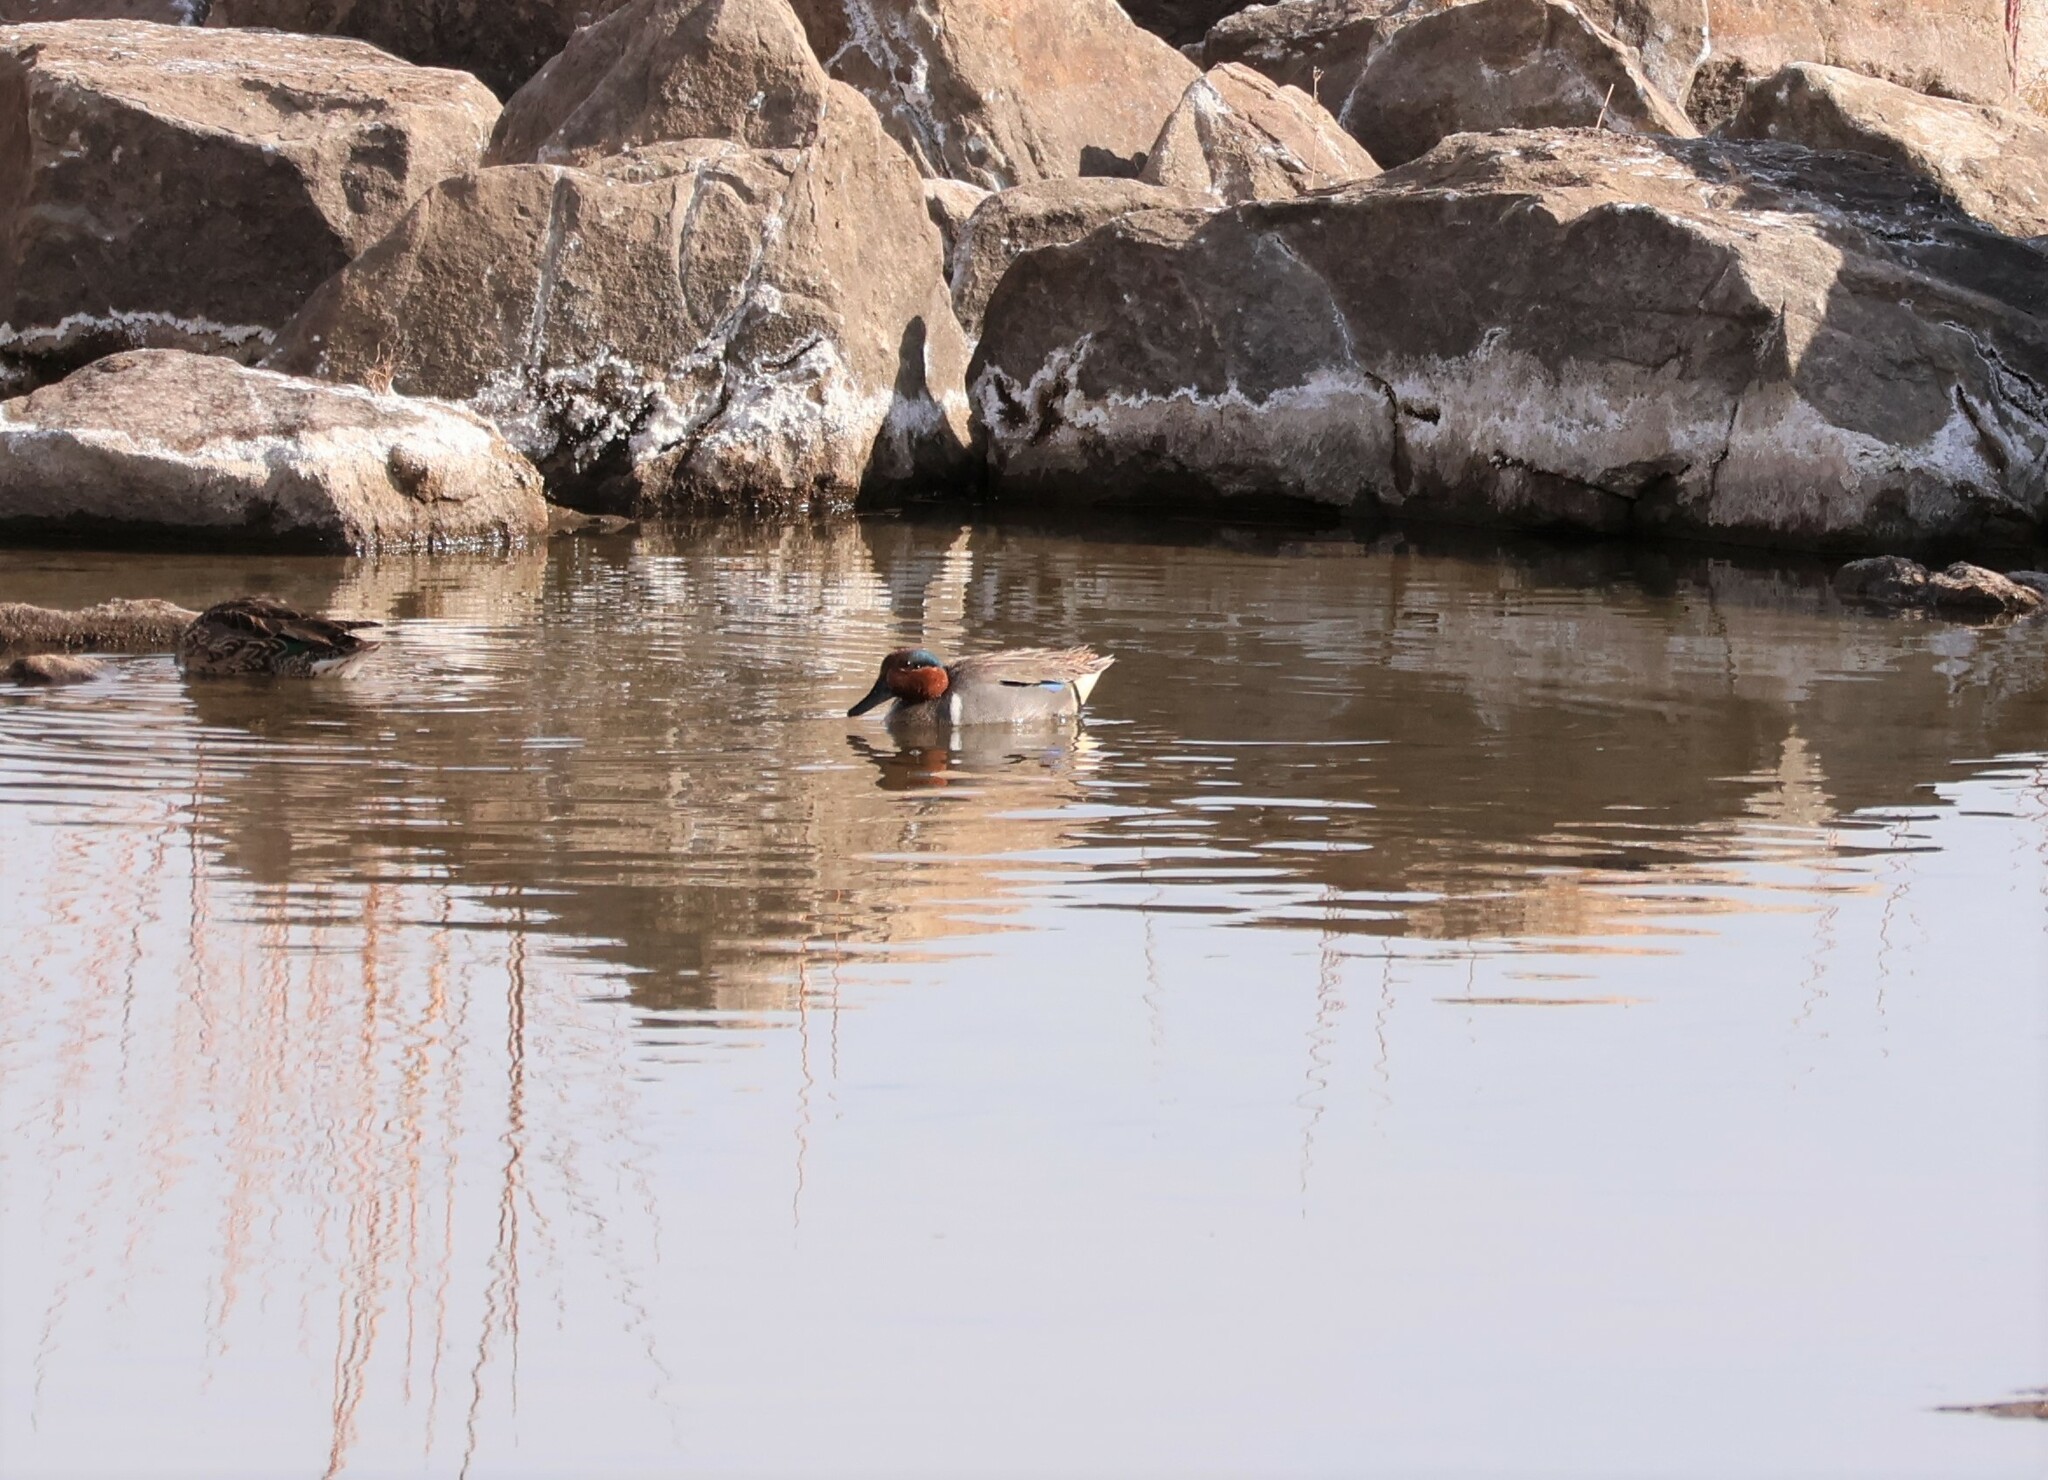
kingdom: Animalia
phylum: Chordata
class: Aves
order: Anseriformes
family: Anatidae
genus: Anas
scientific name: Anas crecca
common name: Eurasian teal
